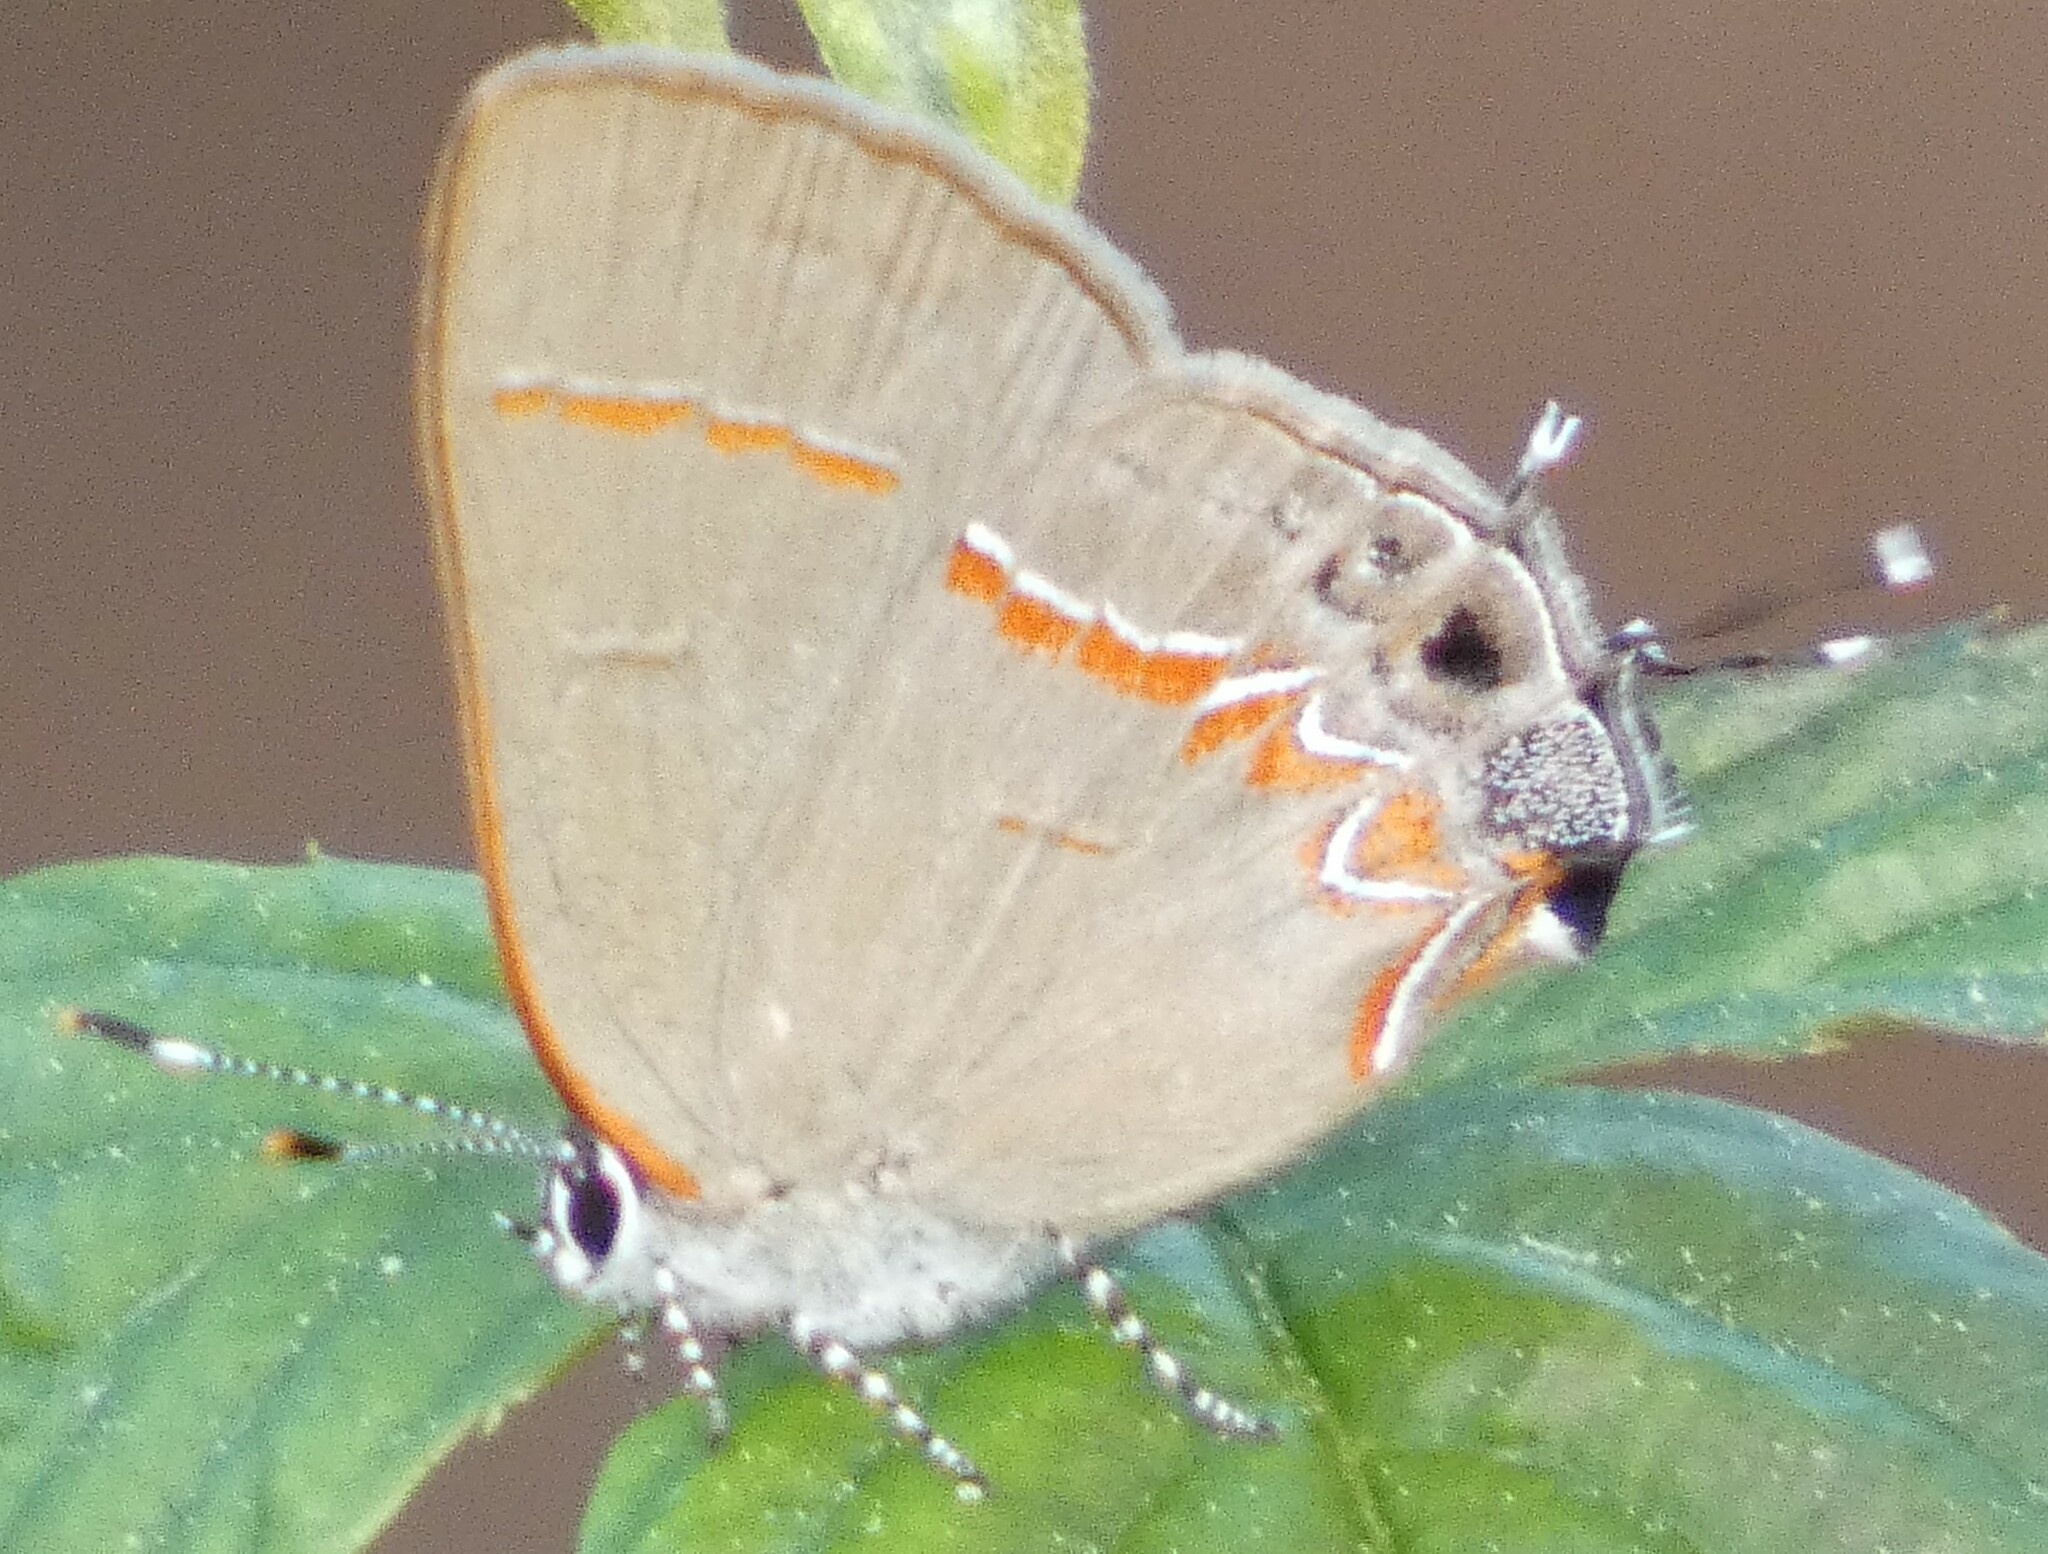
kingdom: Animalia
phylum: Arthropoda
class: Insecta
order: Lepidoptera
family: Lycaenidae
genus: Calycopis
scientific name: Calycopis cecrops
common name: Red-banded hairstreak
